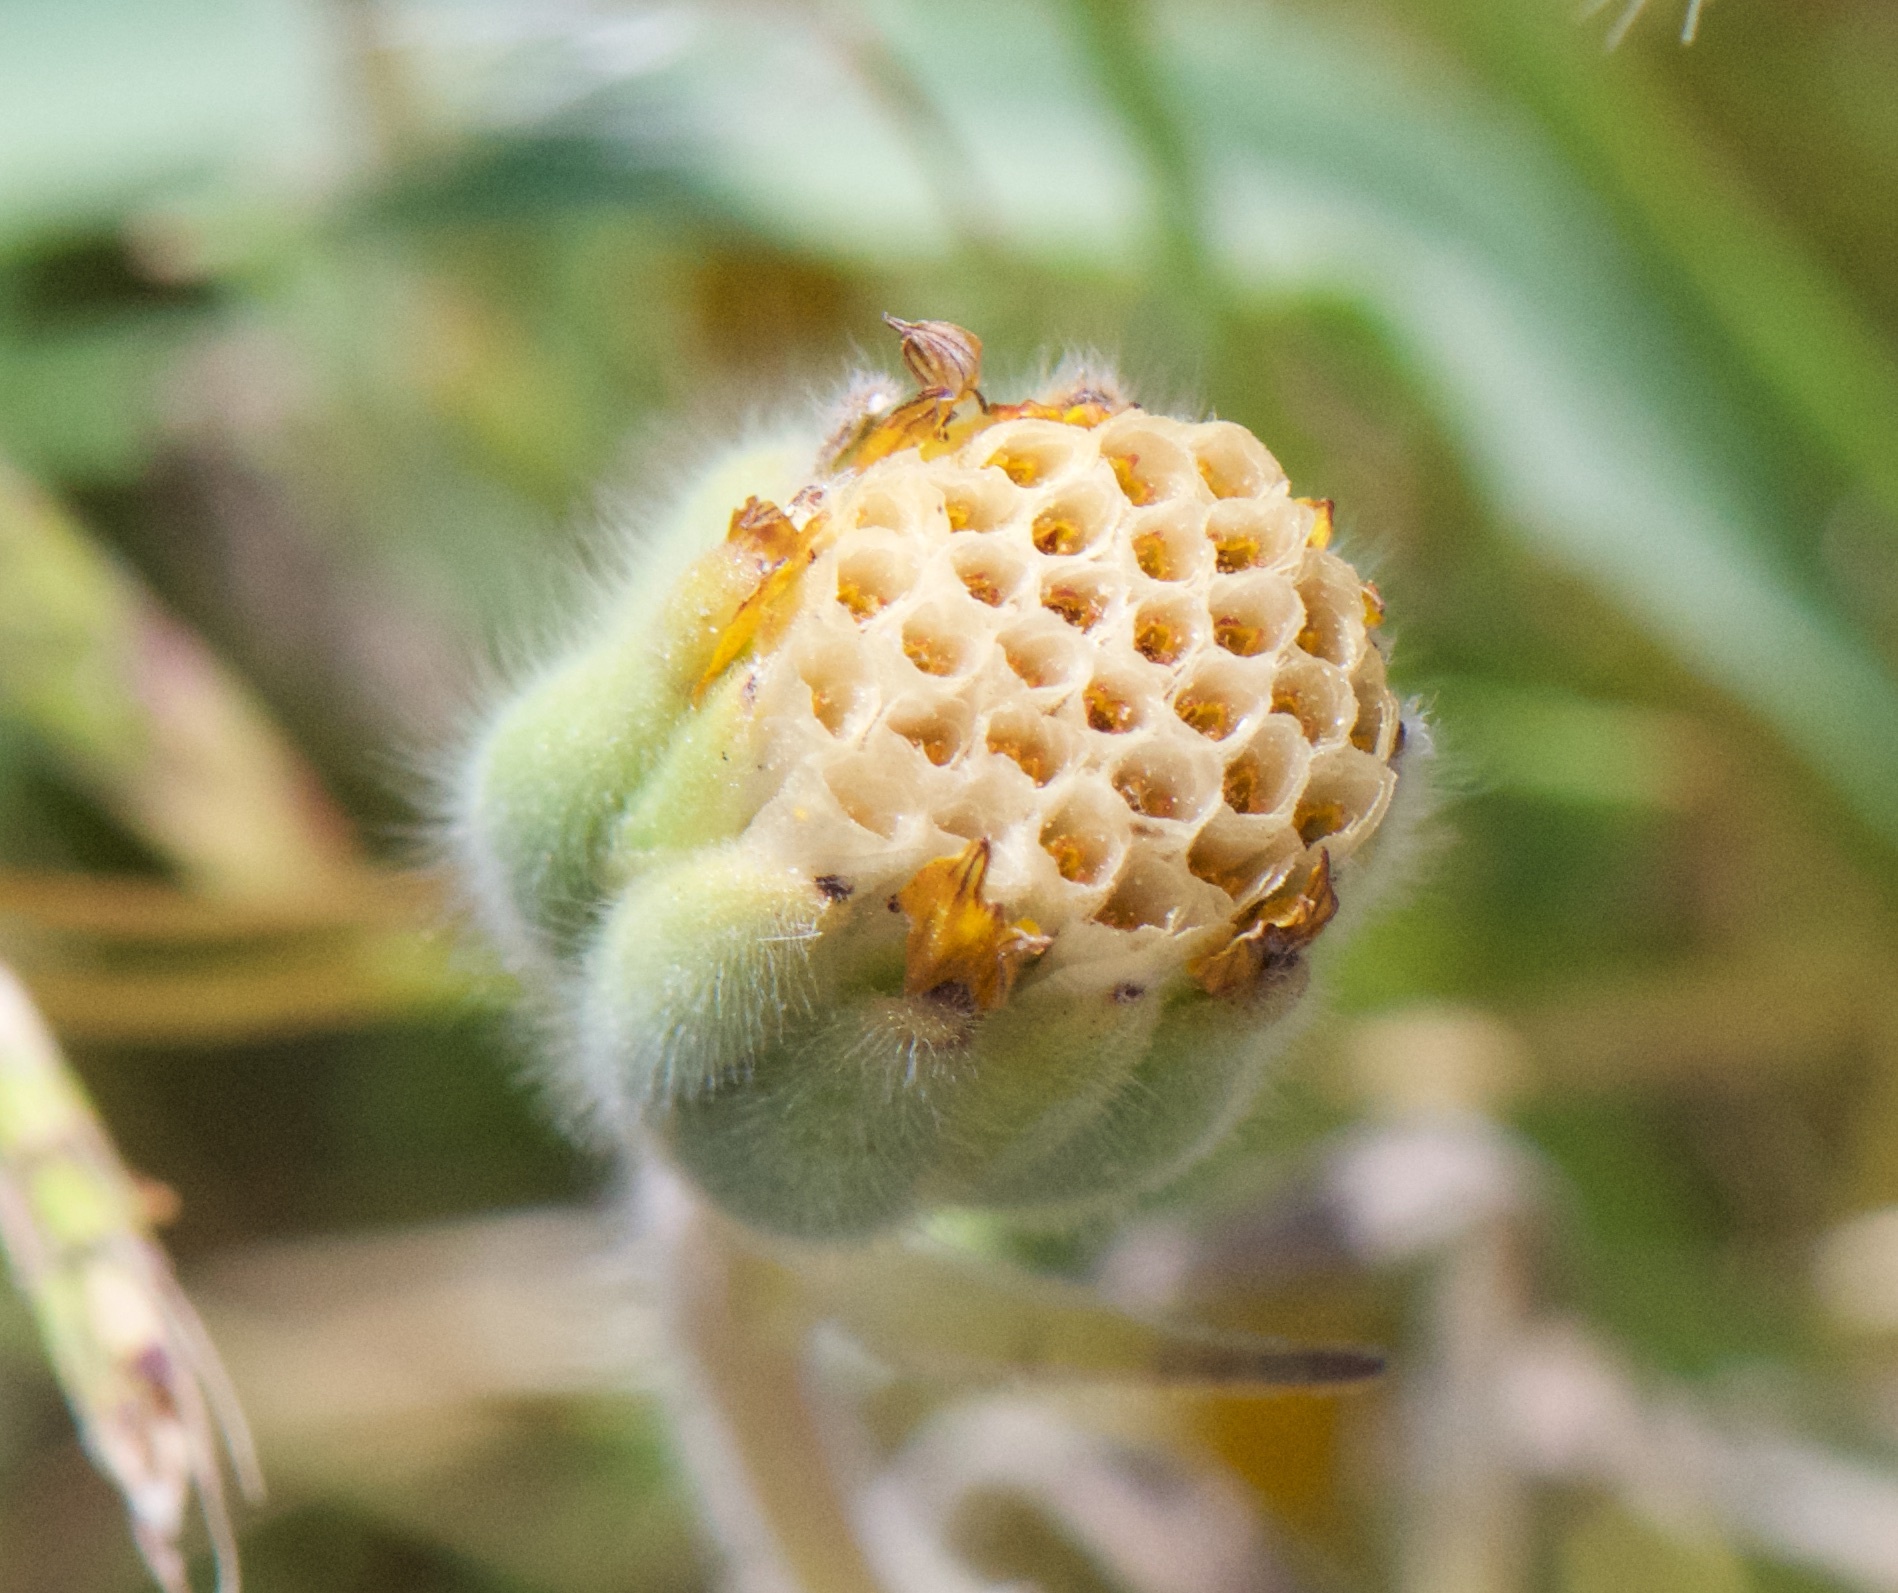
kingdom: Plantae
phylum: Tracheophyta
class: Magnoliopsida
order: Asterales
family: Asteraceae
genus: Achyrachaena
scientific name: Achyrachaena mollis
